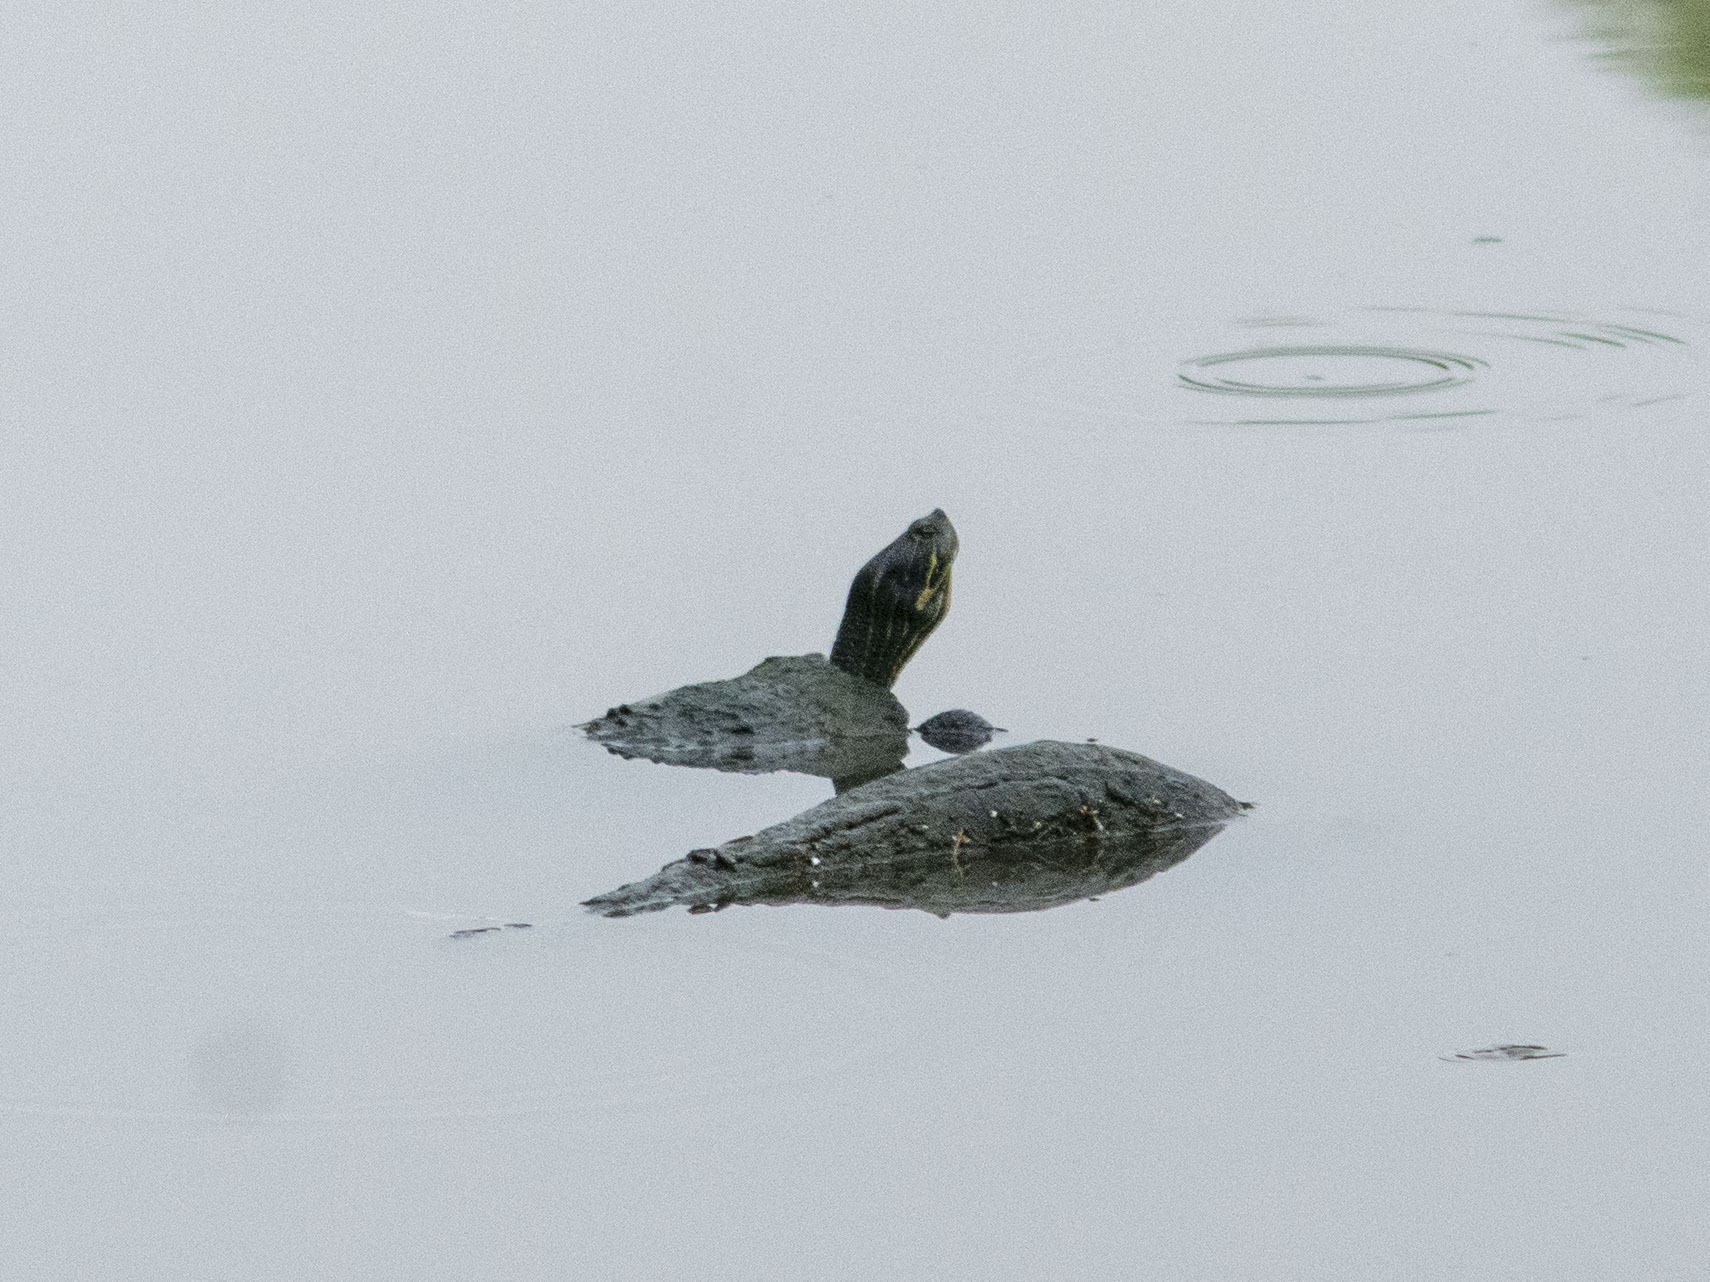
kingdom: Animalia
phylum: Chordata
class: Testudines
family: Emydidae
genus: Trachemys
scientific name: Trachemys scripta
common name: Slider
